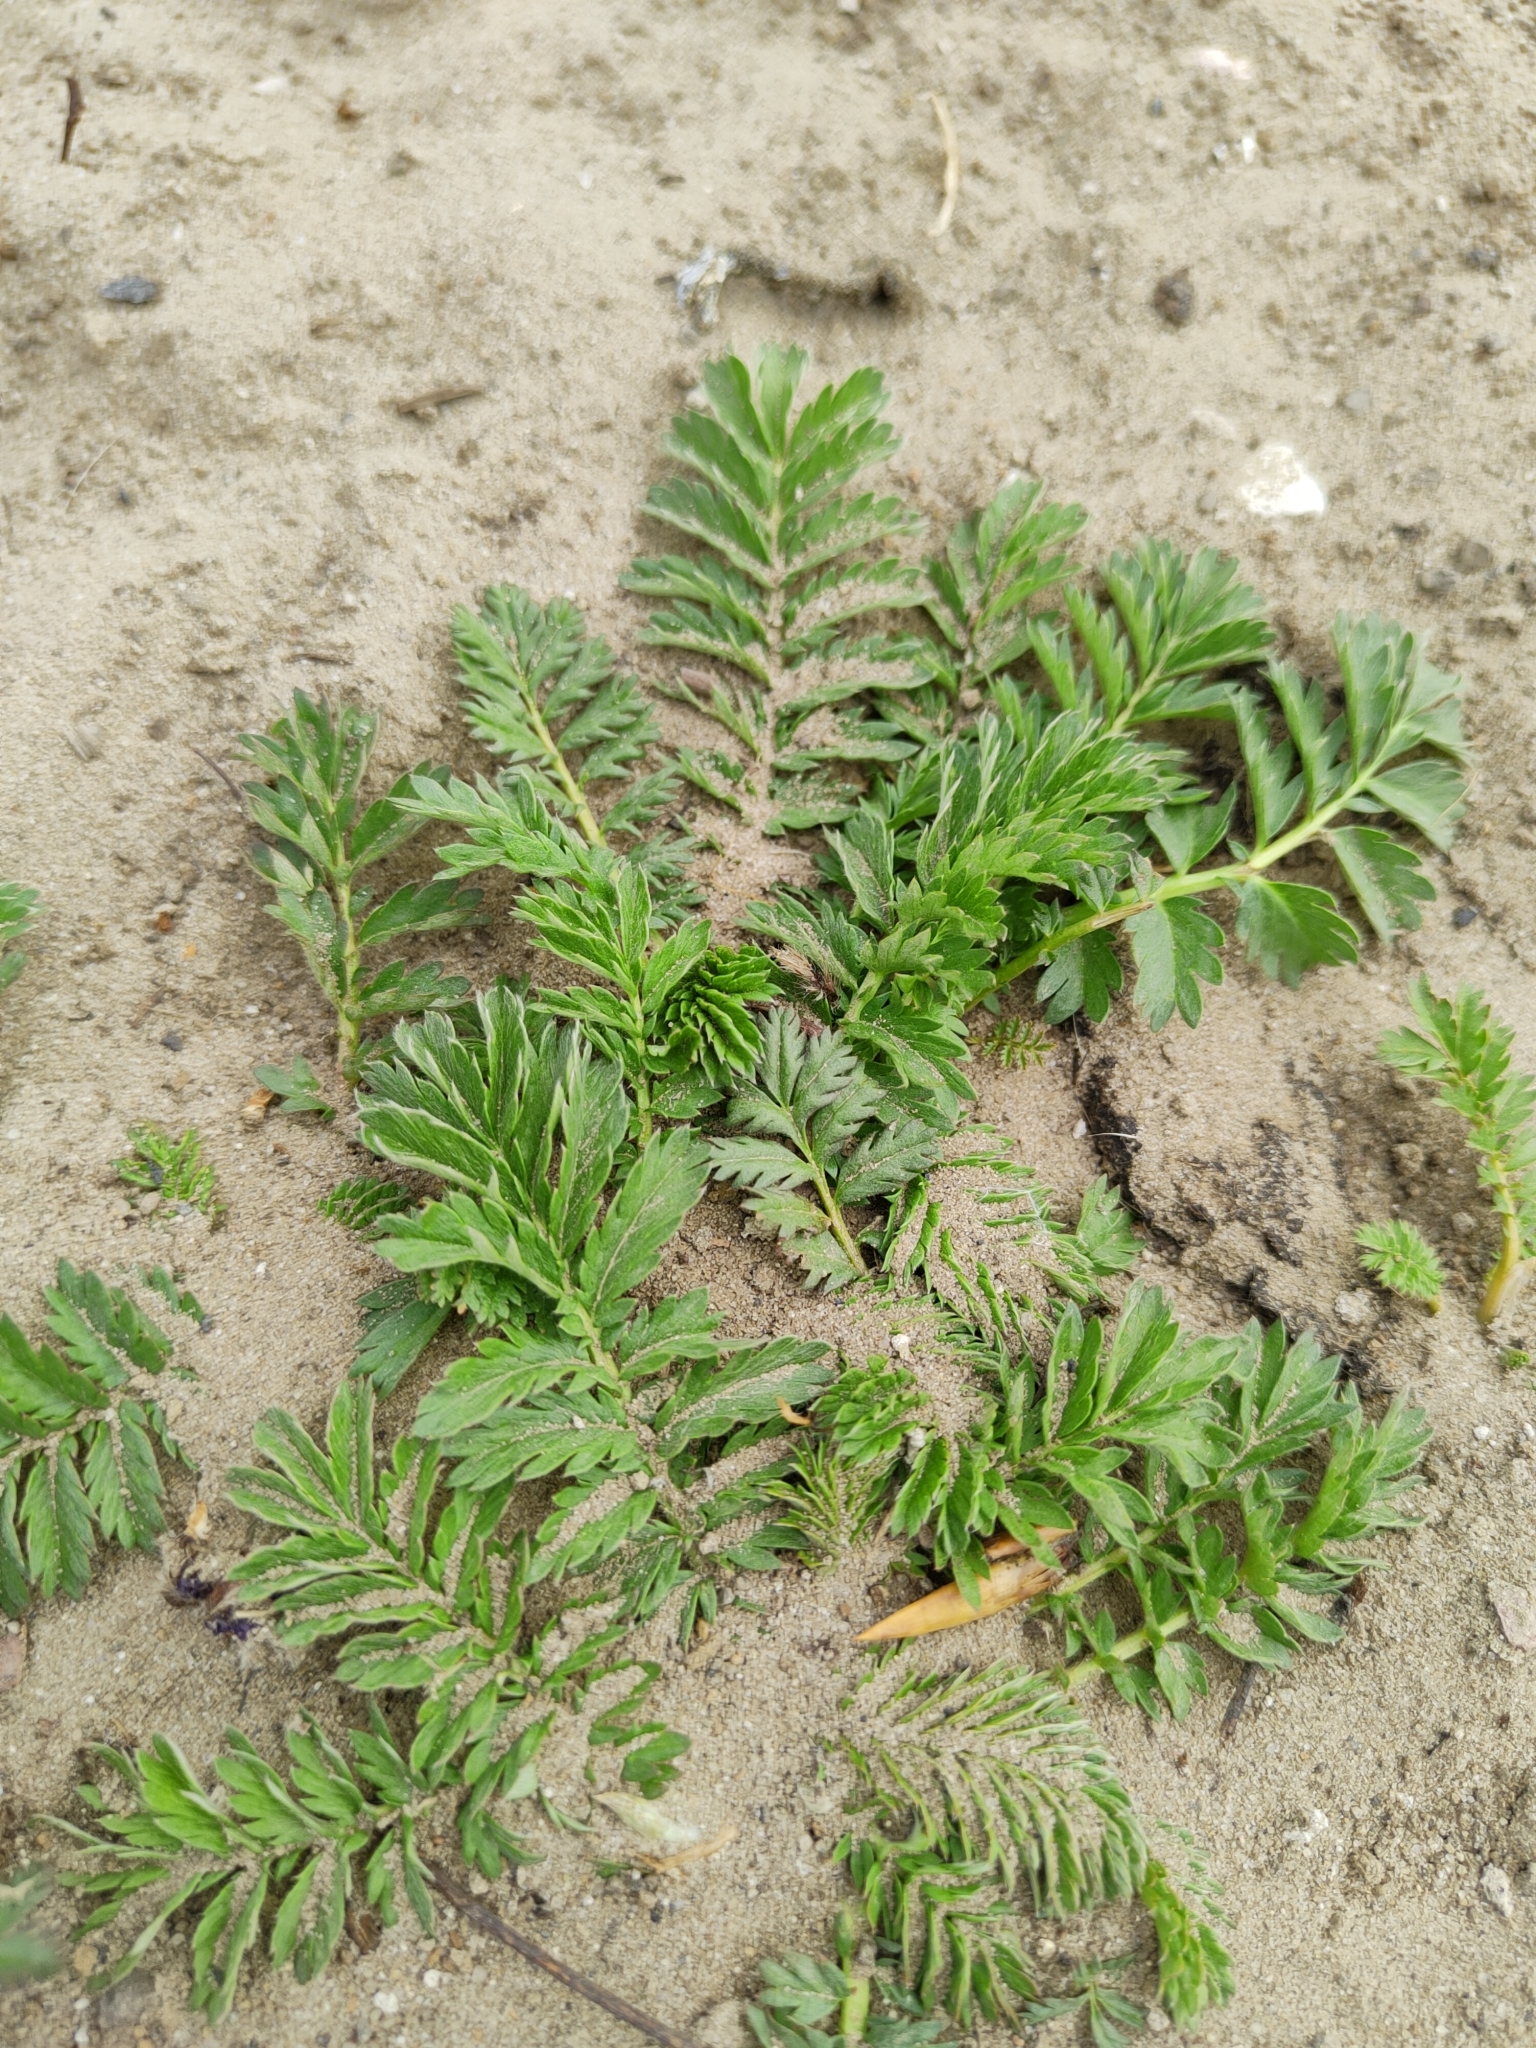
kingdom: Plantae
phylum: Tracheophyta
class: Magnoliopsida
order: Rosales
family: Rosaceae
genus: Argentina
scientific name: Argentina anserina
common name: Common silverweed
